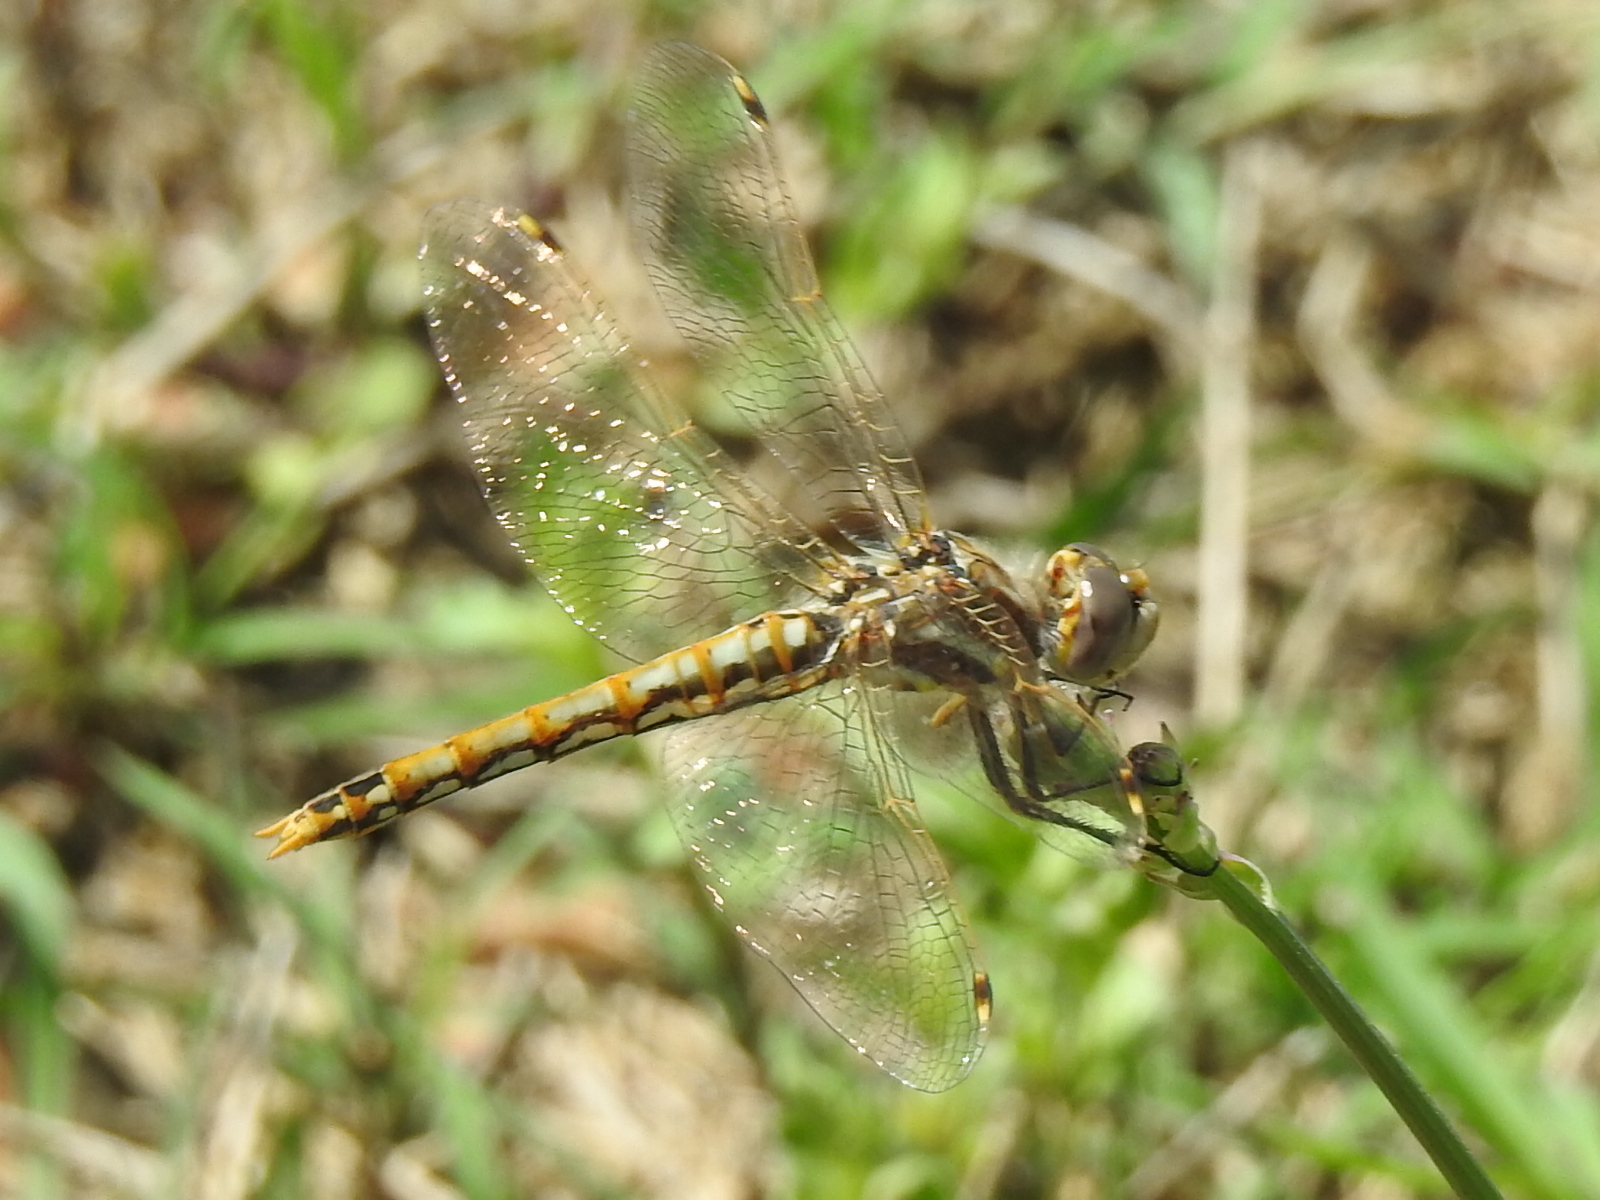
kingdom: Animalia
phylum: Arthropoda
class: Insecta
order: Odonata
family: Libellulidae
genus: Sympetrum
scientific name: Sympetrum corruptum
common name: Variegated meadowhawk
